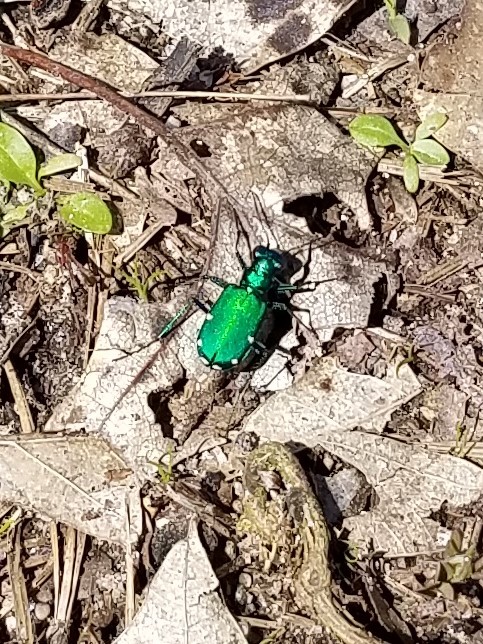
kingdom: Animalia
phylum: Arthropoda
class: Insecta
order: Coleoptera
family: Carabidae
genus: Cicindela
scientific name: Cicindela sexguttata
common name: Six-spotted tiger beetle
